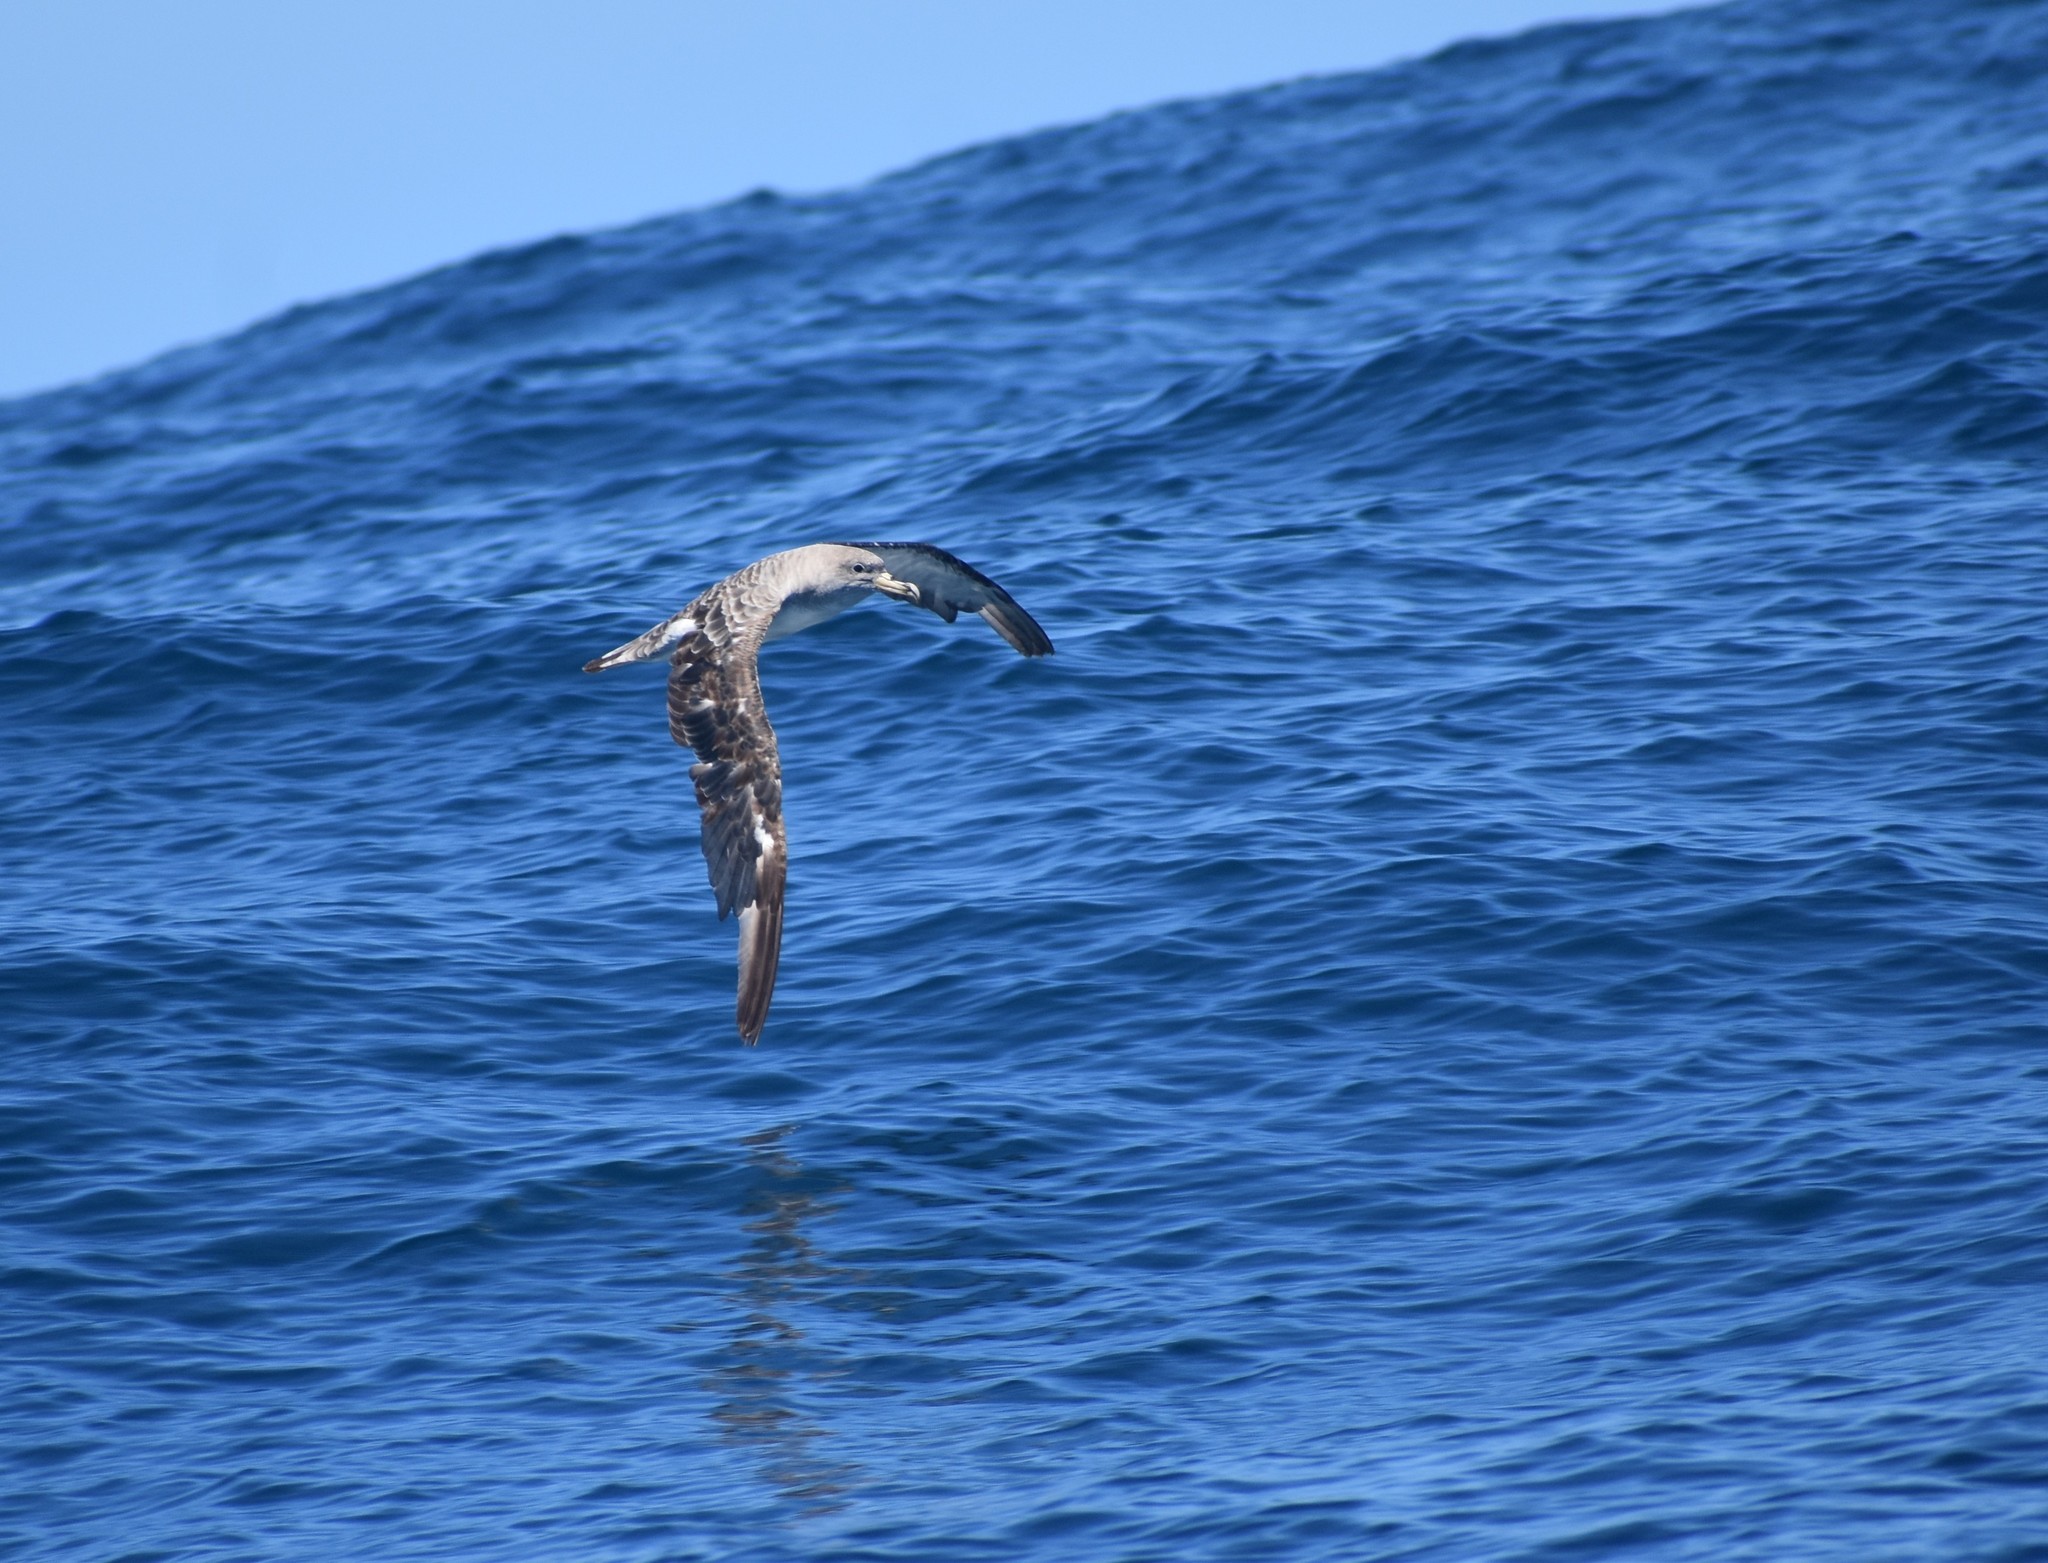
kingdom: Animalia
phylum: Chordata
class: Aves
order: Procellariiformes
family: Procellariidae
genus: Calonectris
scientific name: Calonectris diomedea
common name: Cory's shearwater
